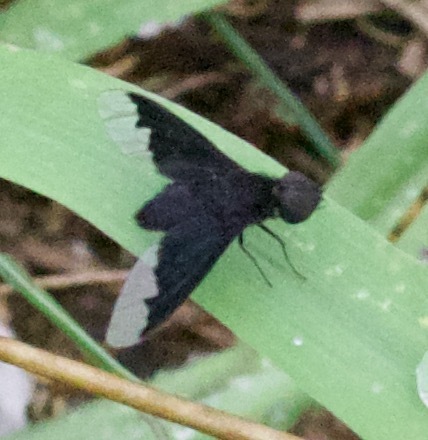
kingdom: Animalia
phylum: Arthropoda
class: Insecta
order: Diptera
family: Bombyliidae
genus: Anthrax
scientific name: Anthrax analis
